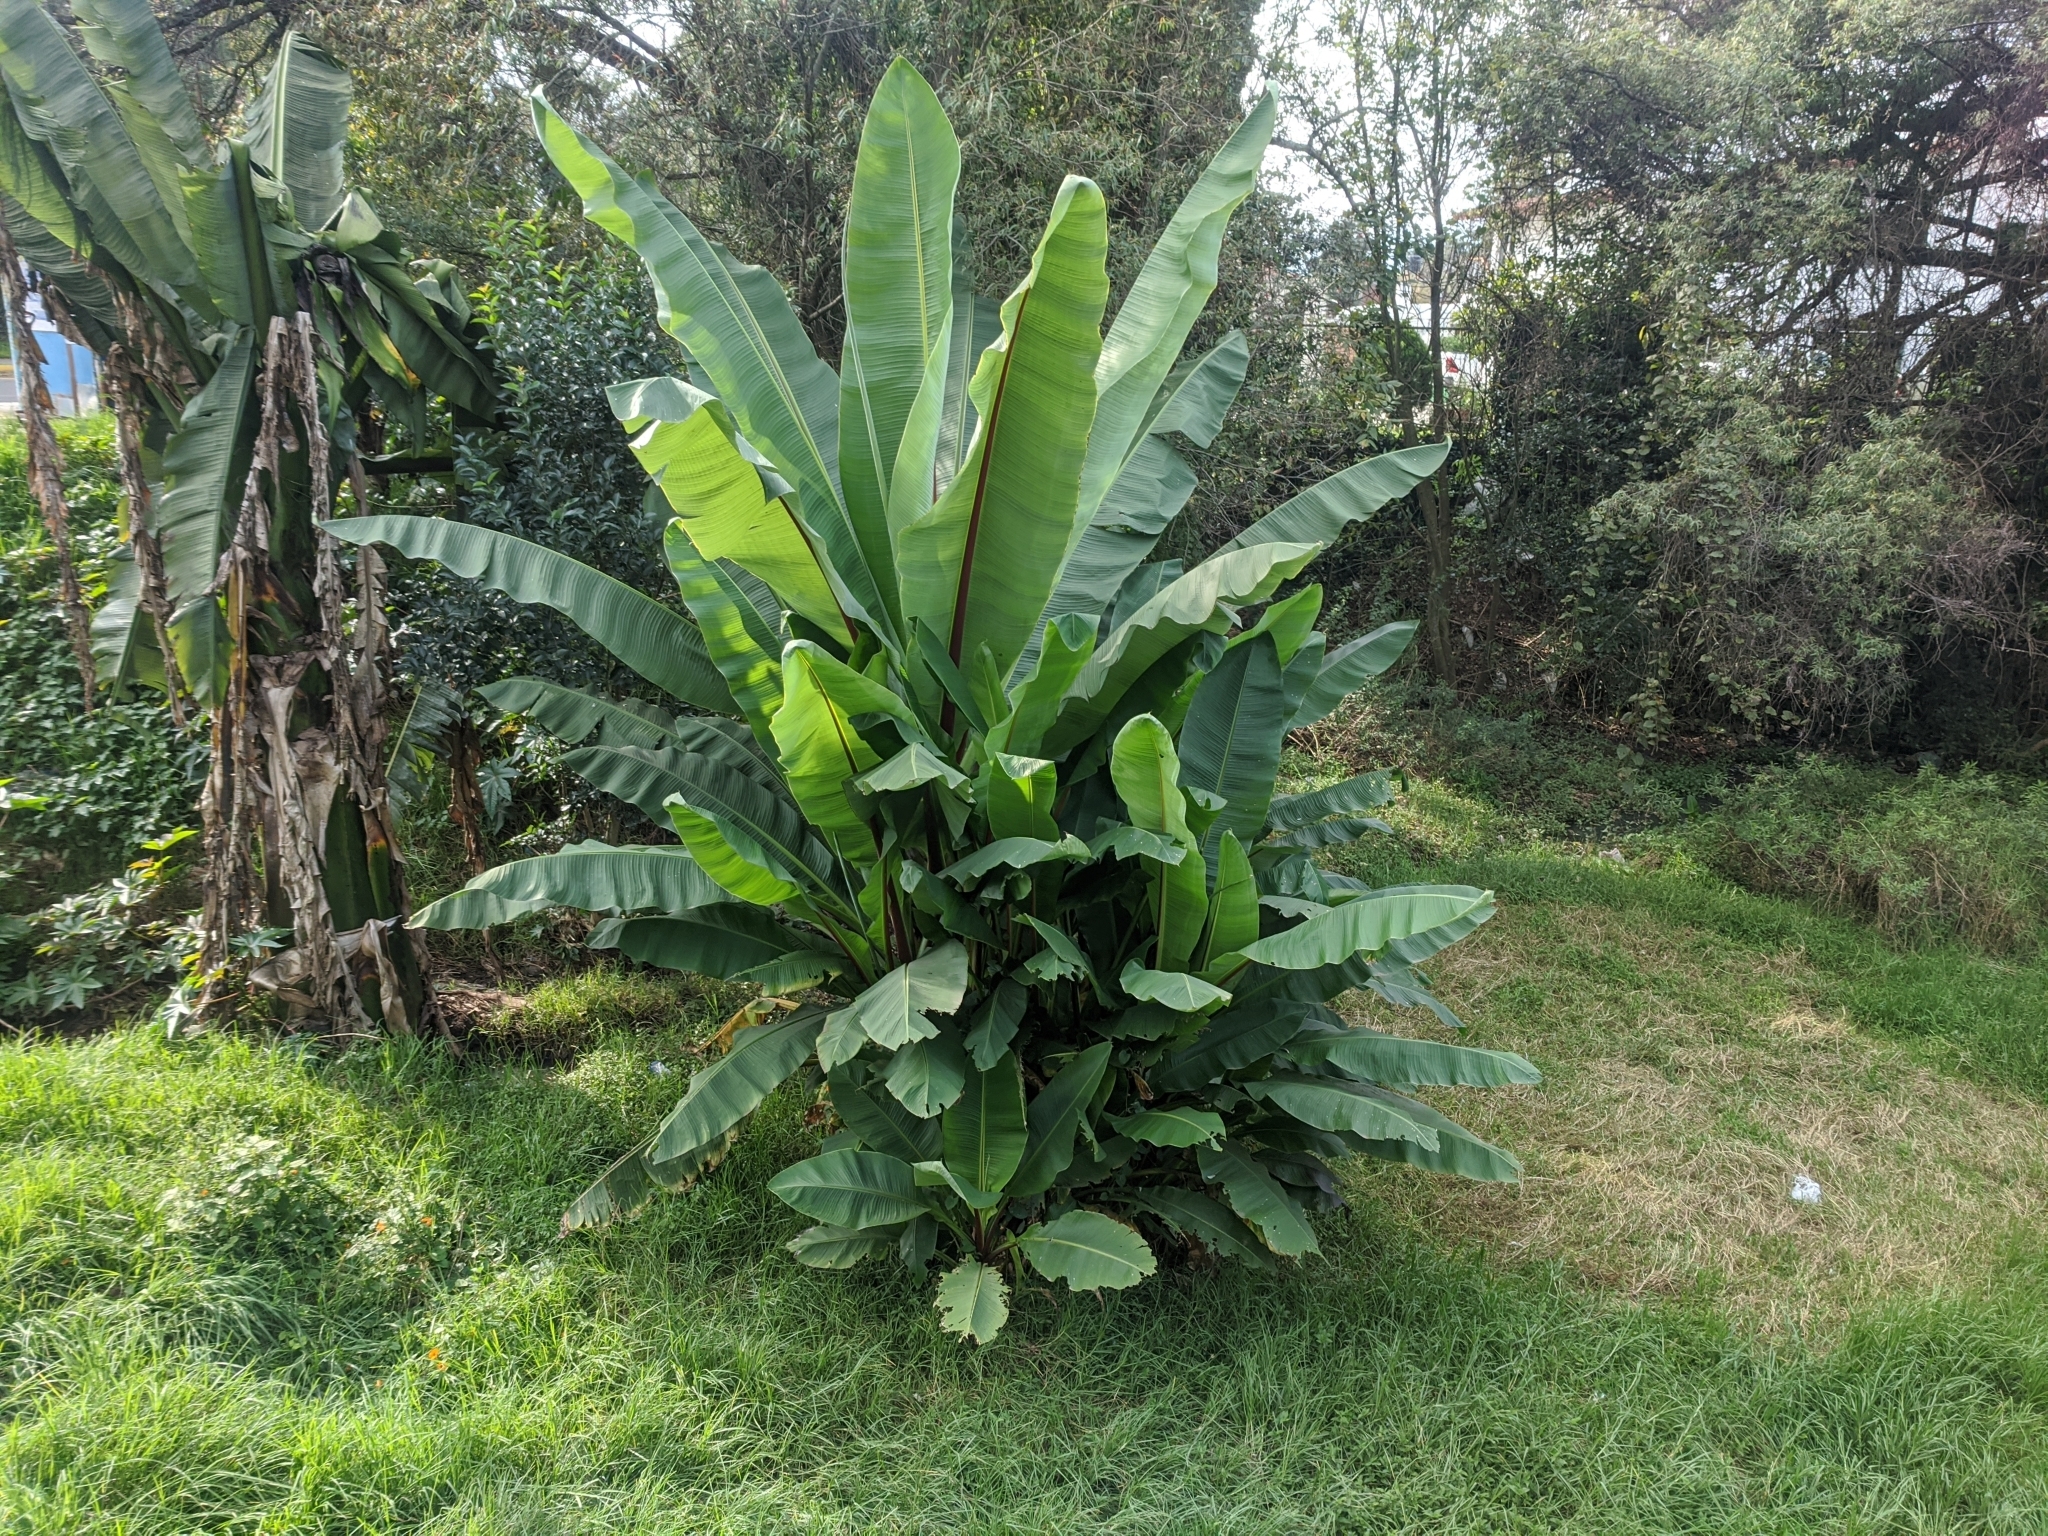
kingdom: Plantae
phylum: Tracheophyta
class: Liliopsida
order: Zingiberales
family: Musaceae
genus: Ensete
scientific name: Ensete ventricosum
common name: Abyssinian banana
